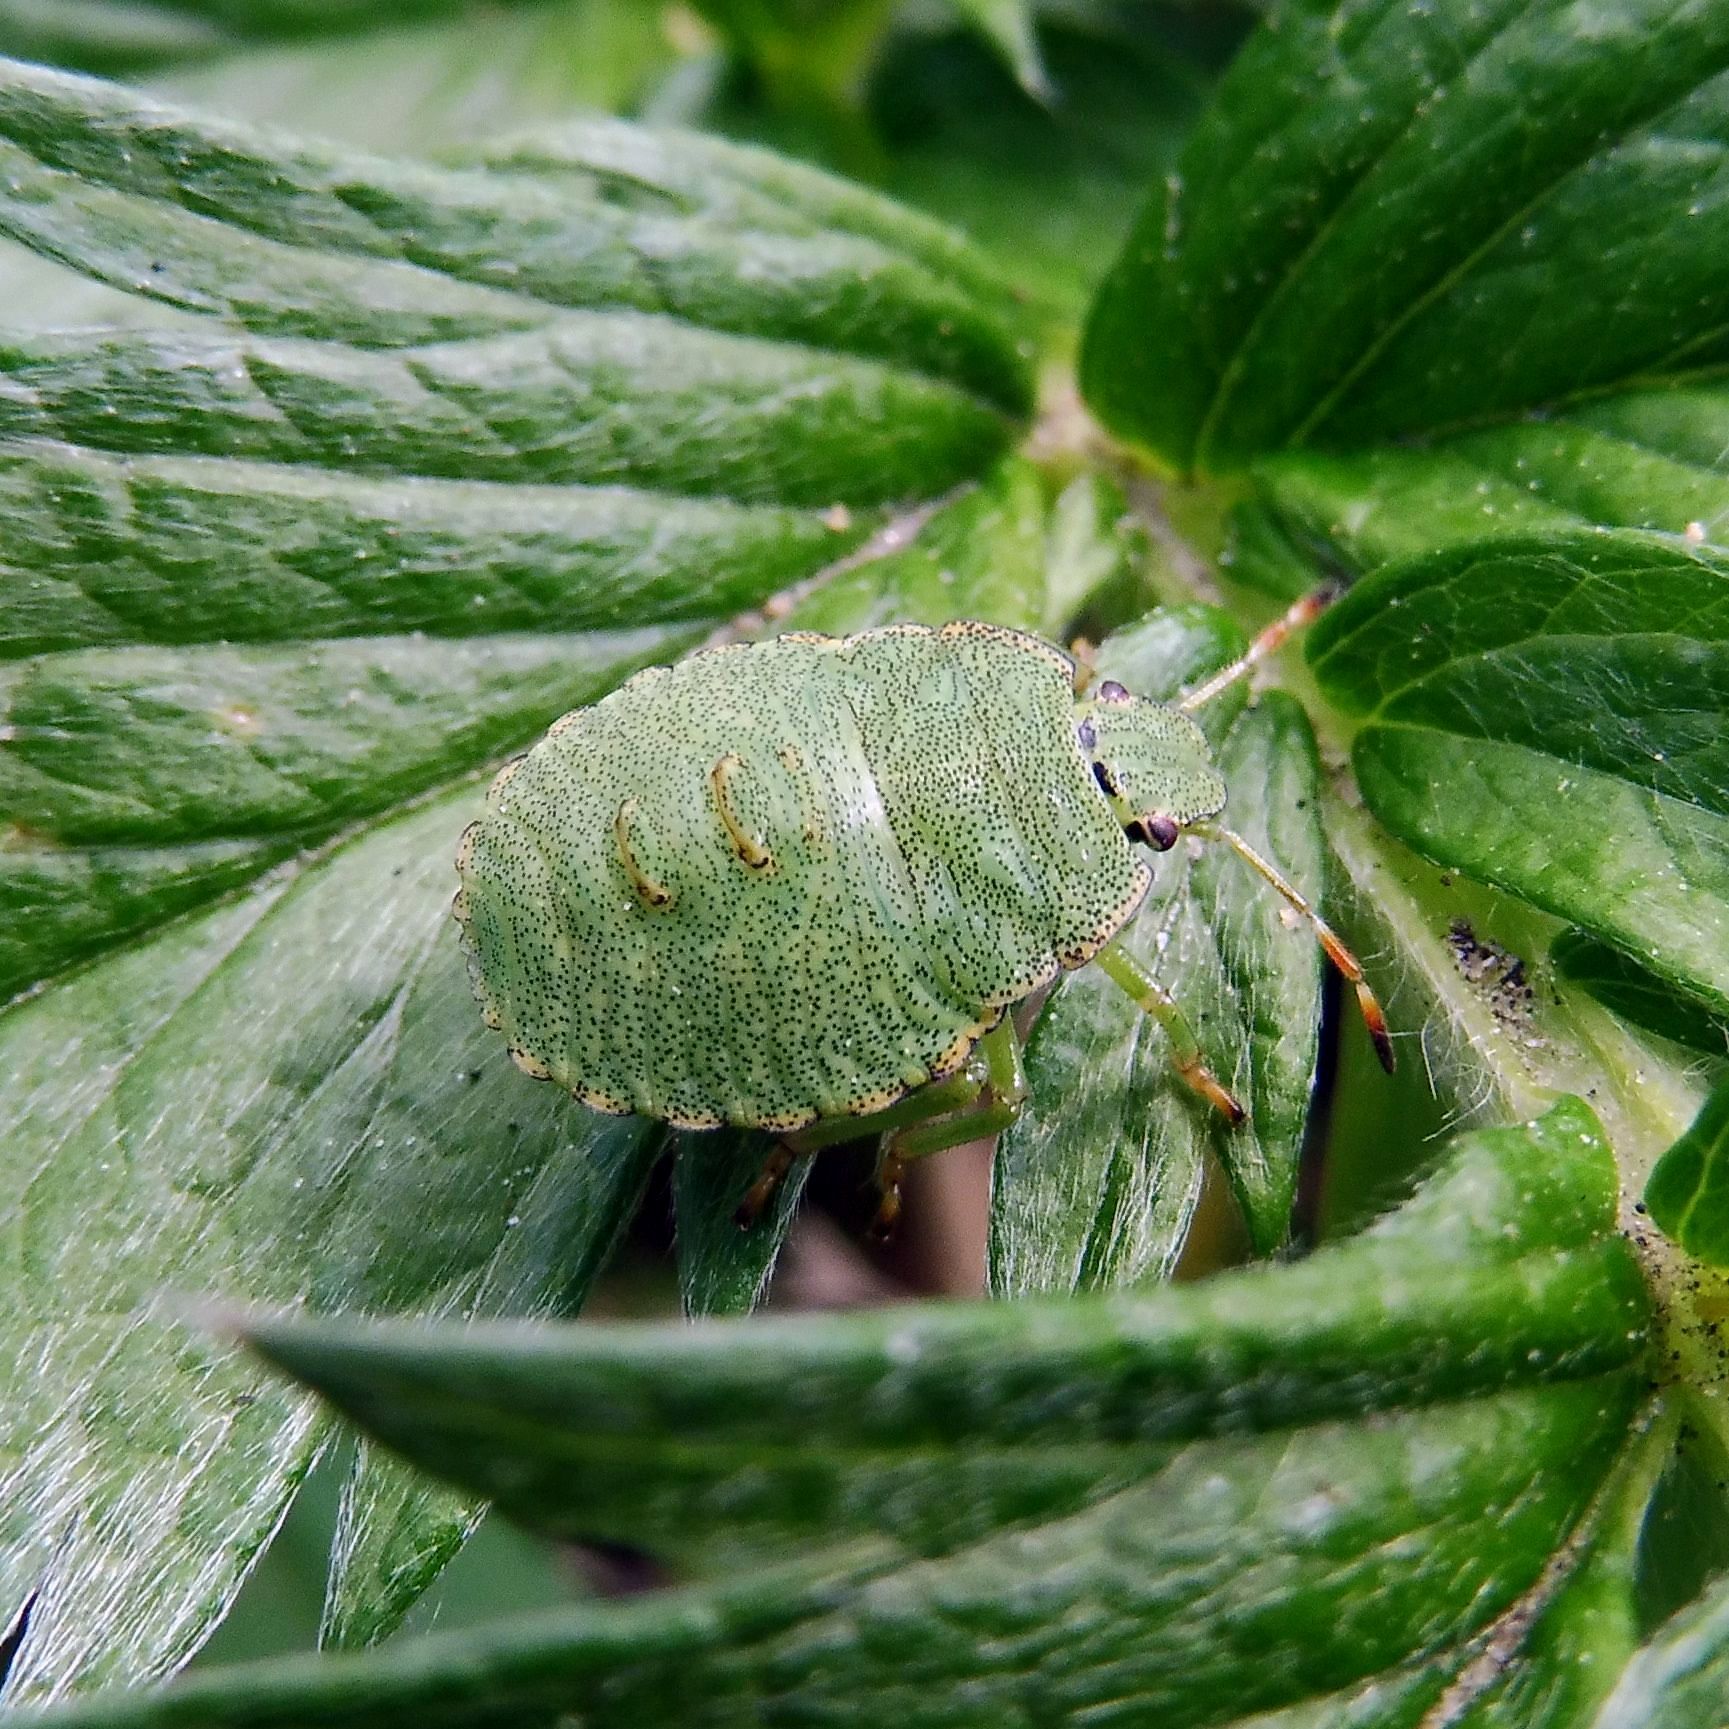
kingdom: Animalia
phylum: Arthropoda
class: Insecta
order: Hemiptera
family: Pentatomidae
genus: Palomena
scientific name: Palomena prasina
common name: Green shieldbug
